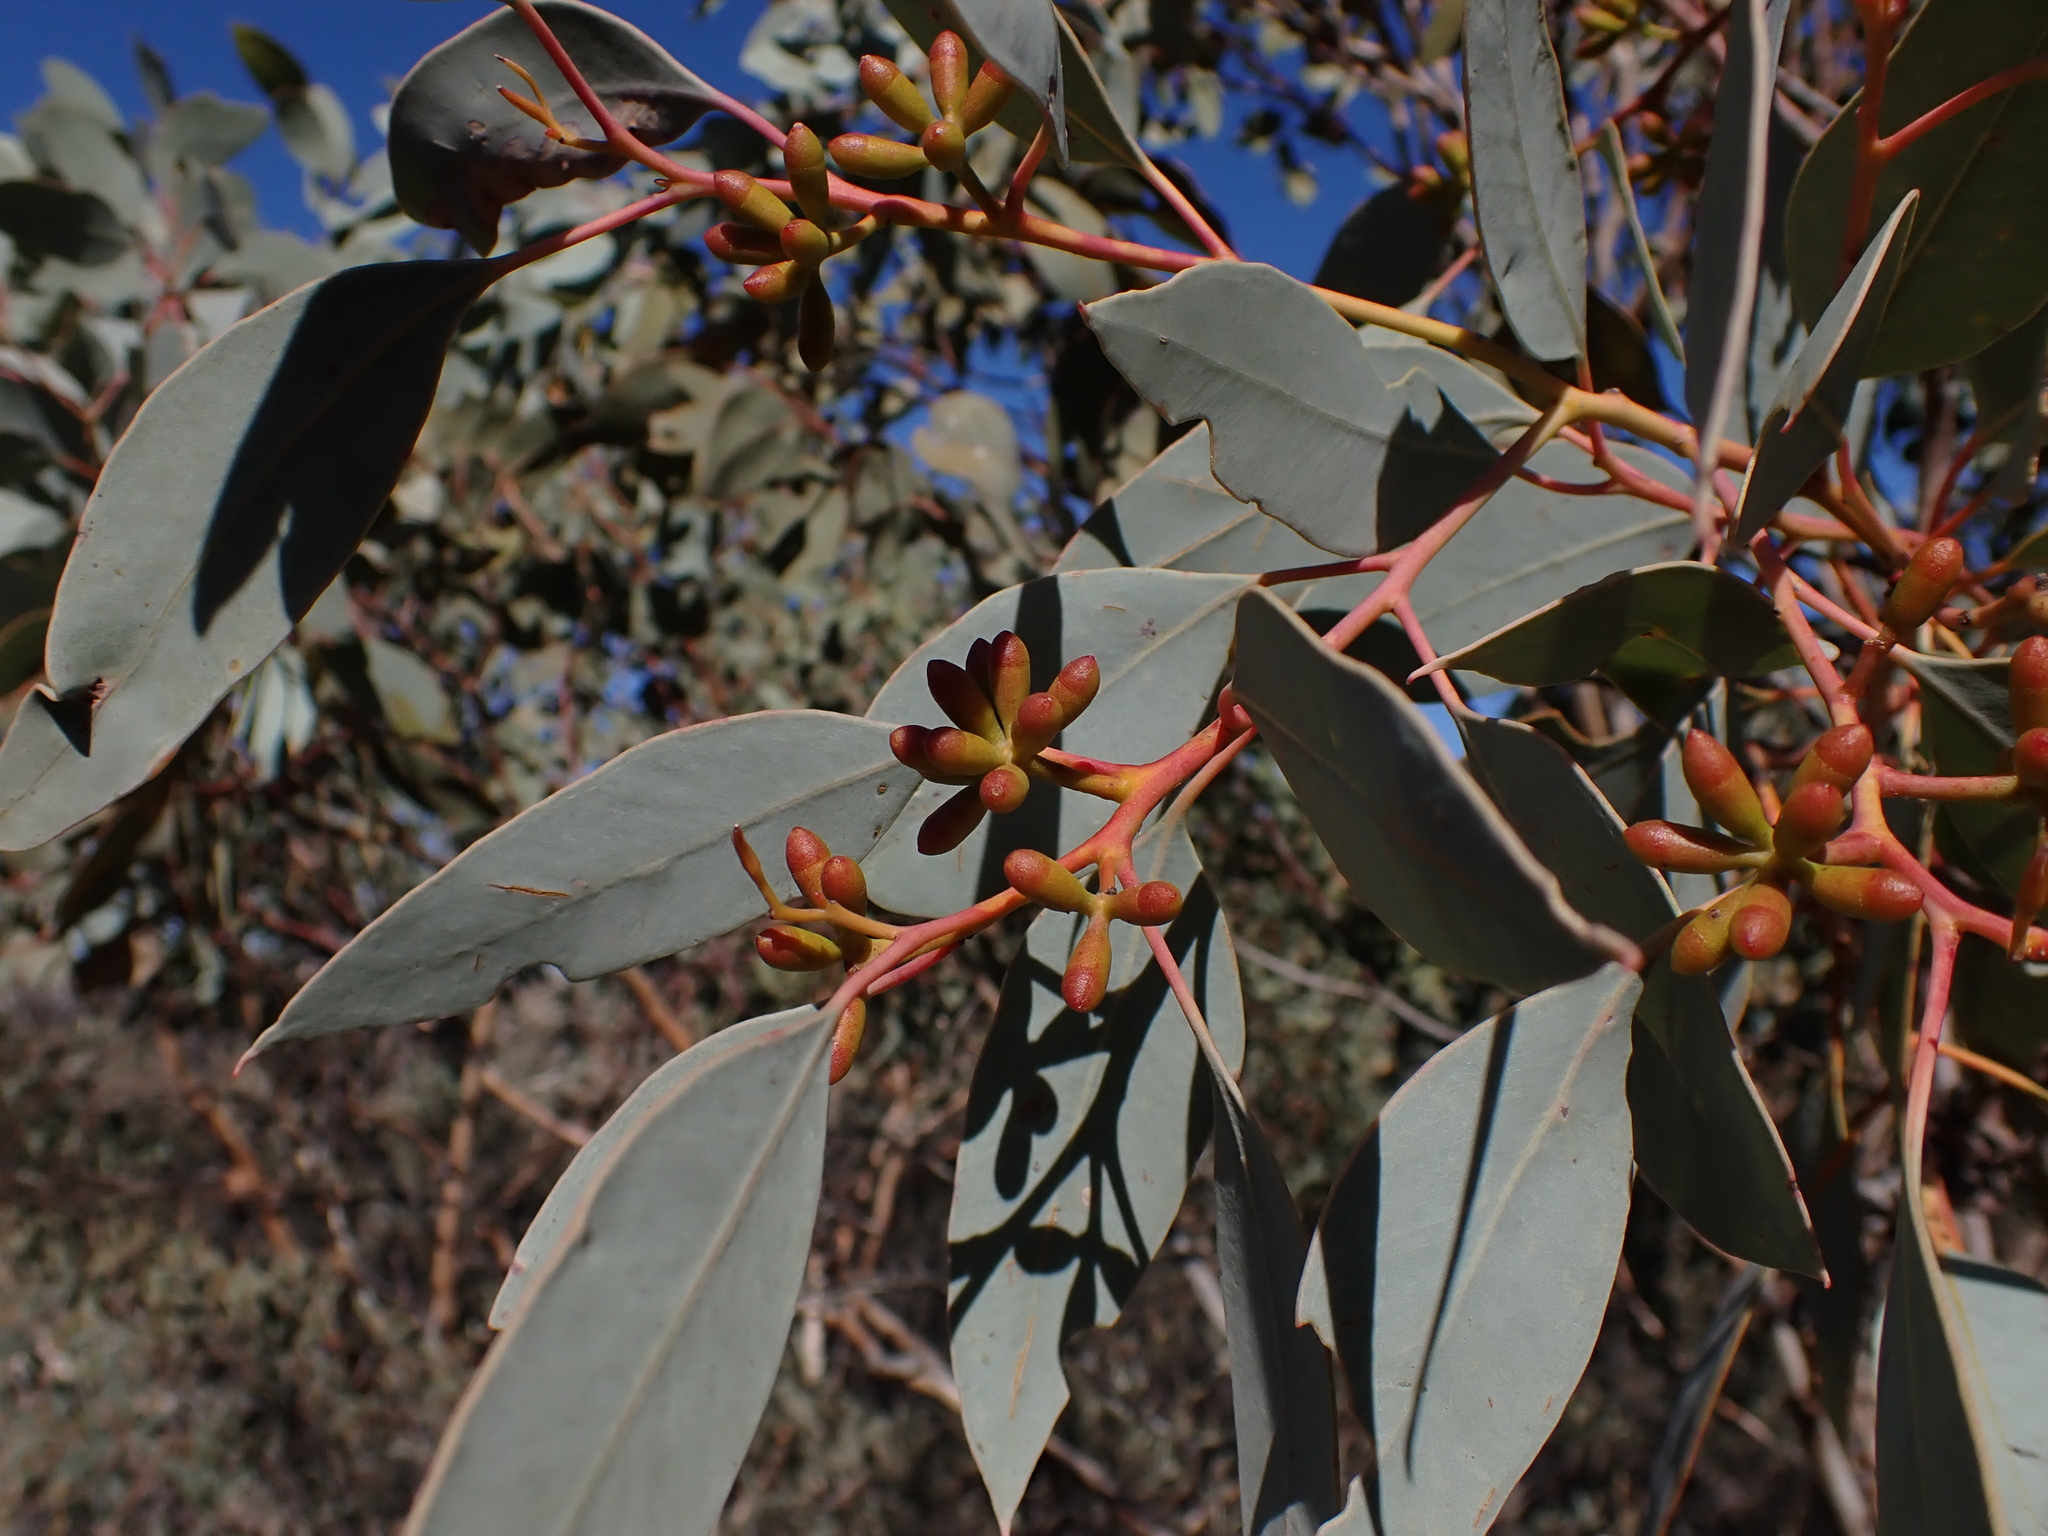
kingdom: Plantae
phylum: Tracheophyta
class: Magnoliopsida
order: Myrtales
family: Myrtaceae
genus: Eucalyptus
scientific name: Eucalyptus trivalva
